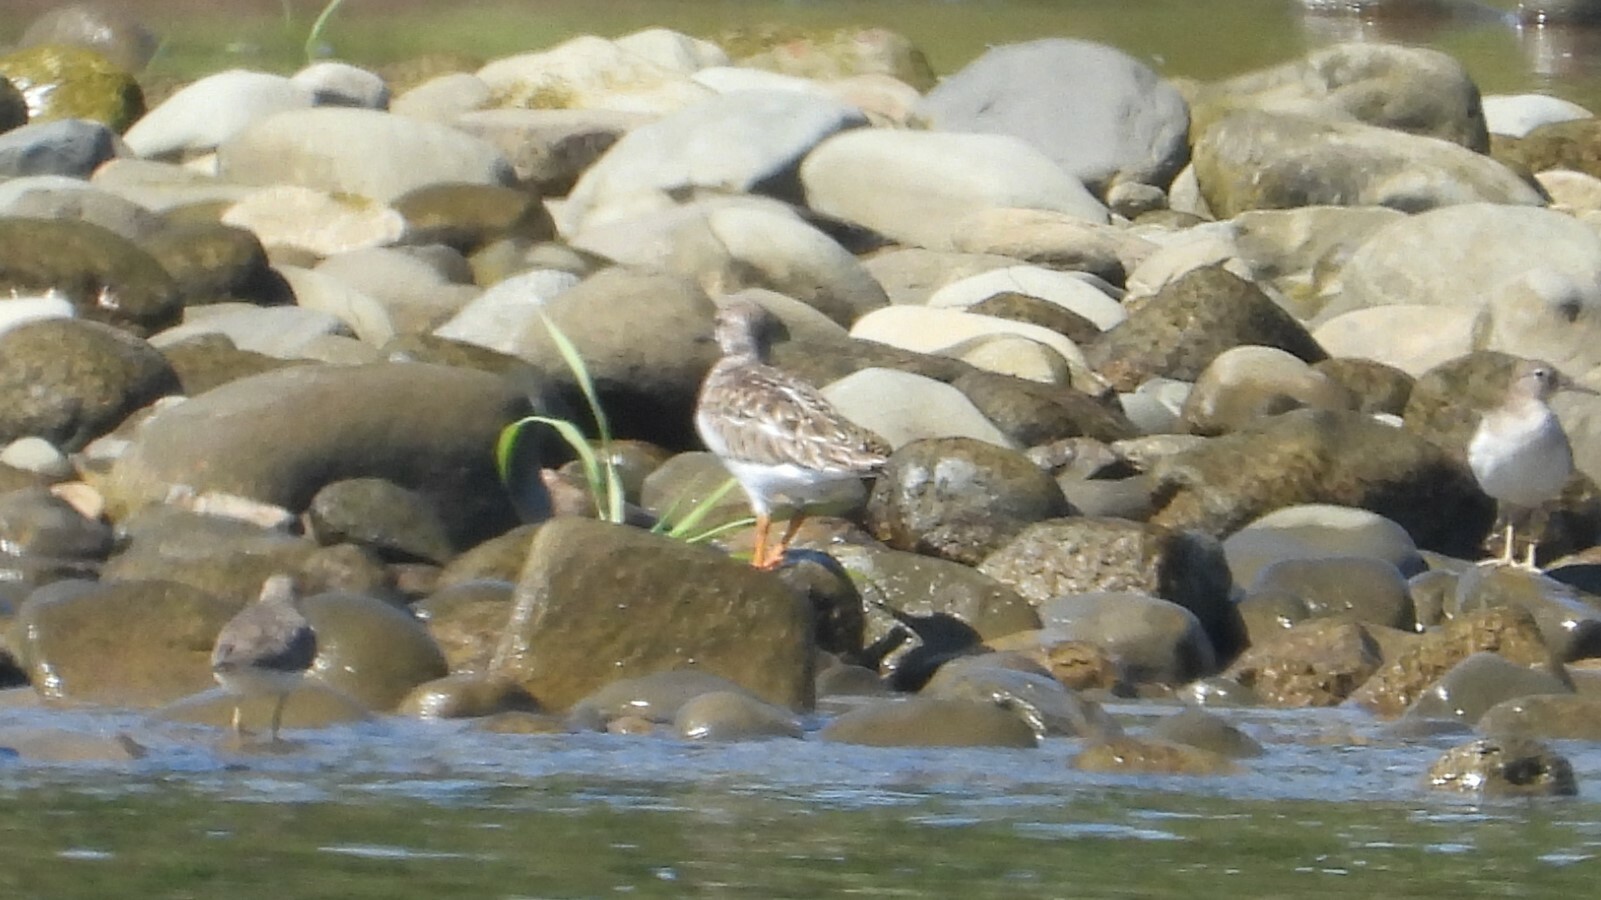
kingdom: Animalia
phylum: Chordata
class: Aves
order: Charadriiformes
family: Scolopacidae
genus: Arenaria
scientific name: Arenaria interpres
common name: Ruddy turnstone
